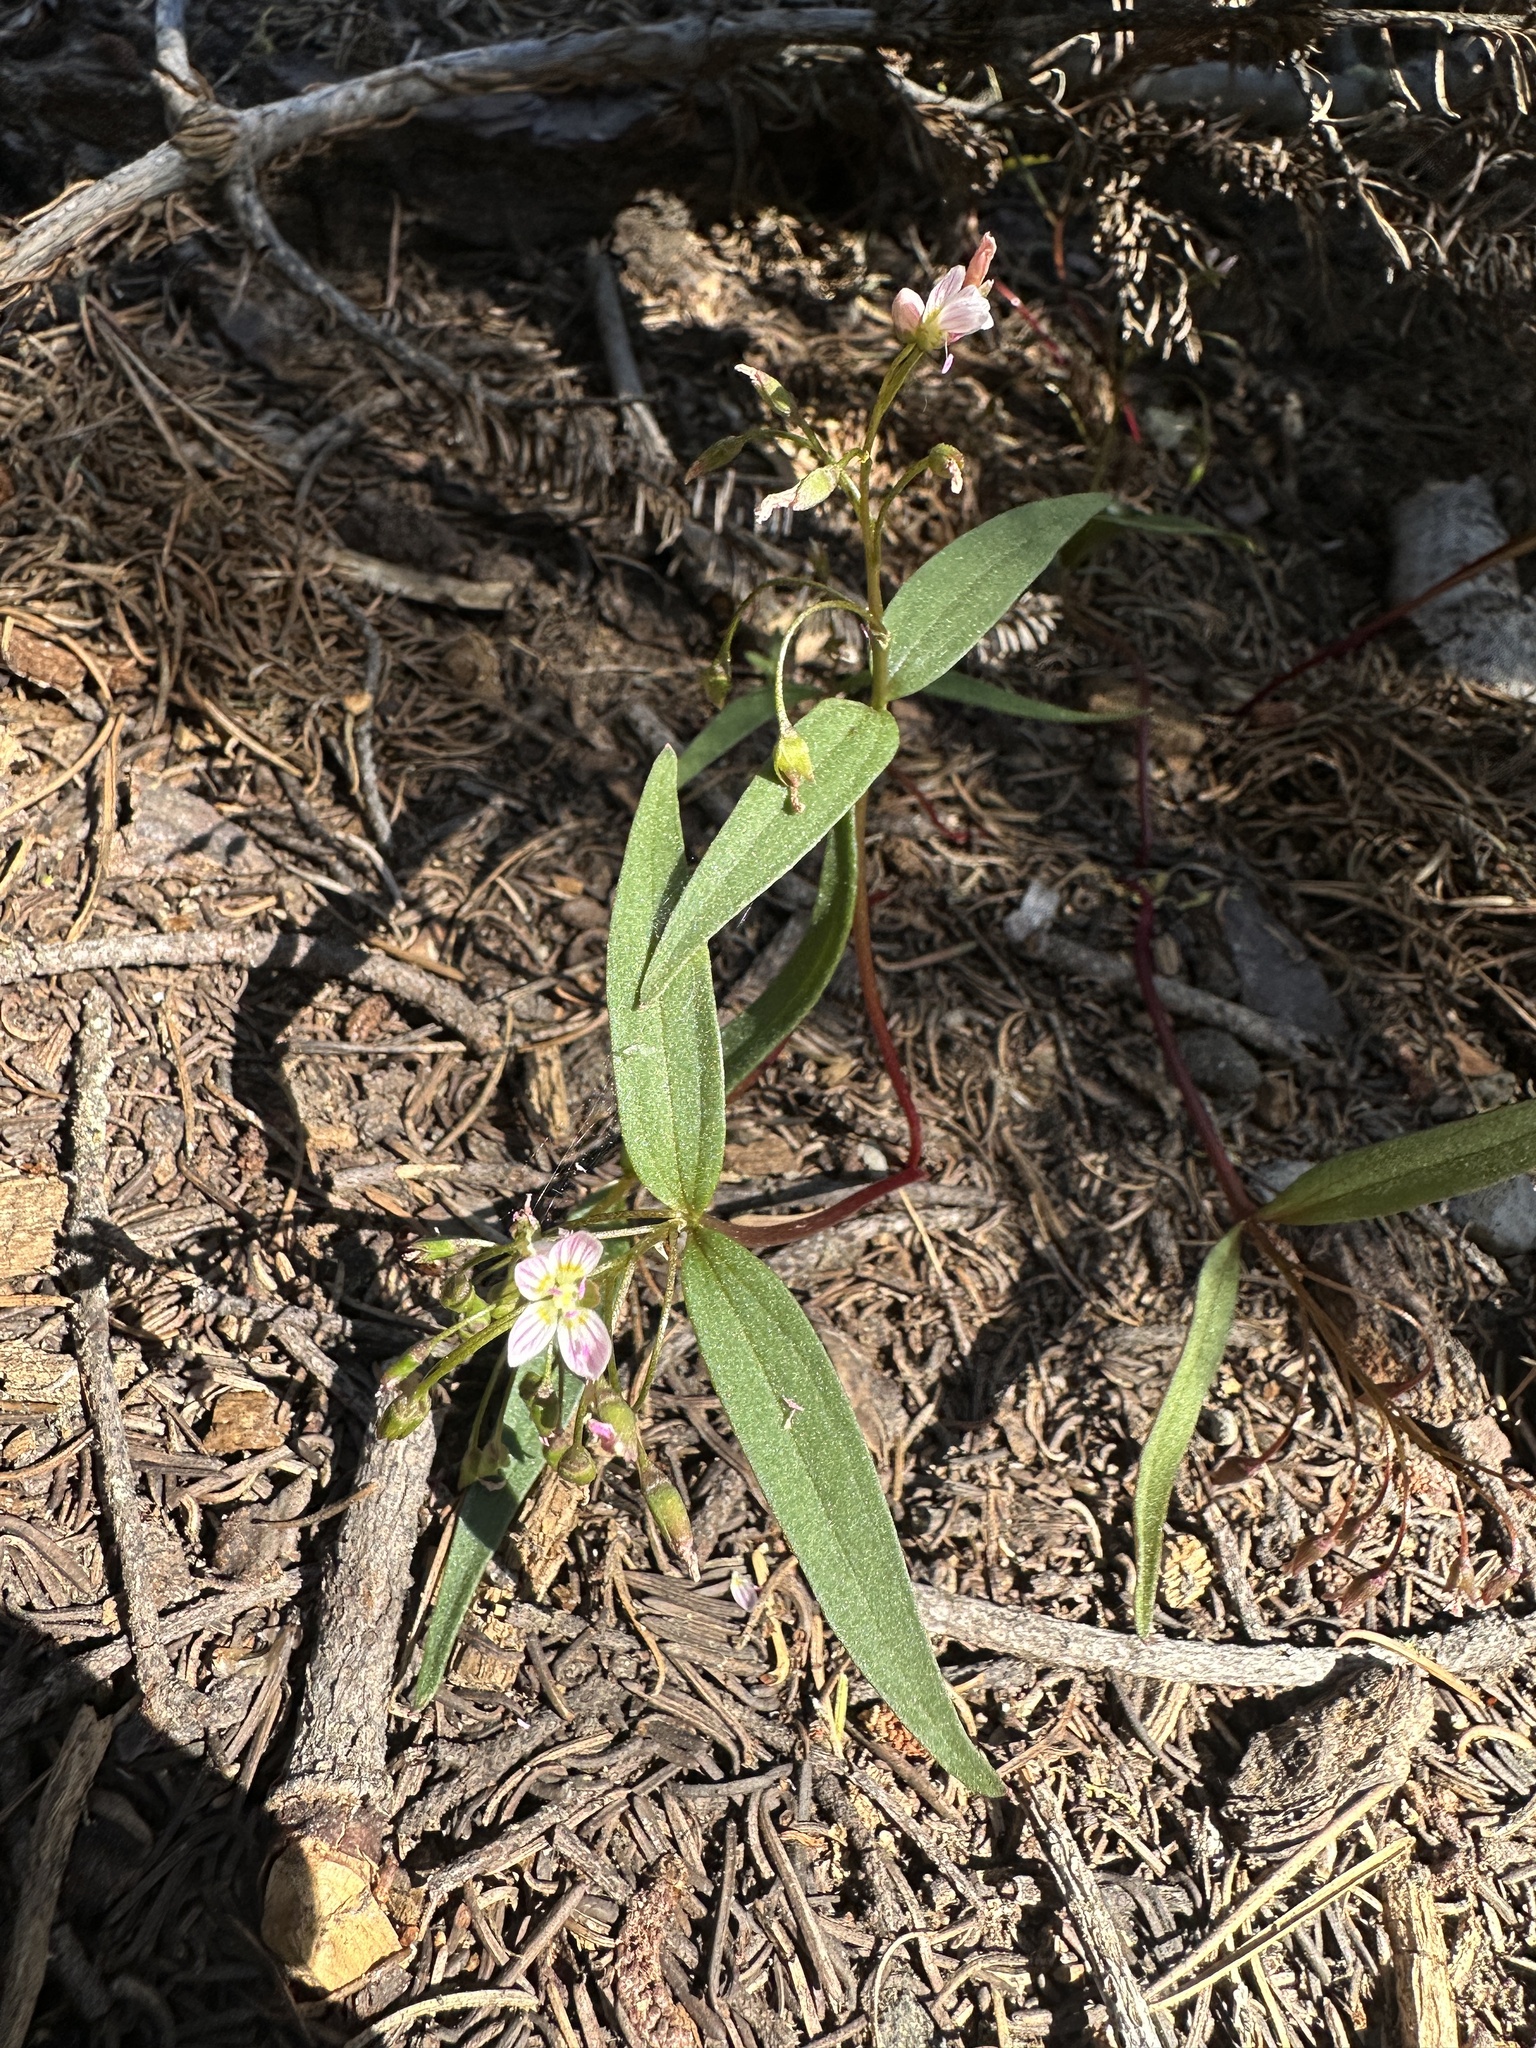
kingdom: Plantae
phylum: Tracheophyta
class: Magnoliopsida
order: Caryophyllales
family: Montiaceae
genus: Claytonia
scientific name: Claytonia lanceolata
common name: Western spring-beauty
